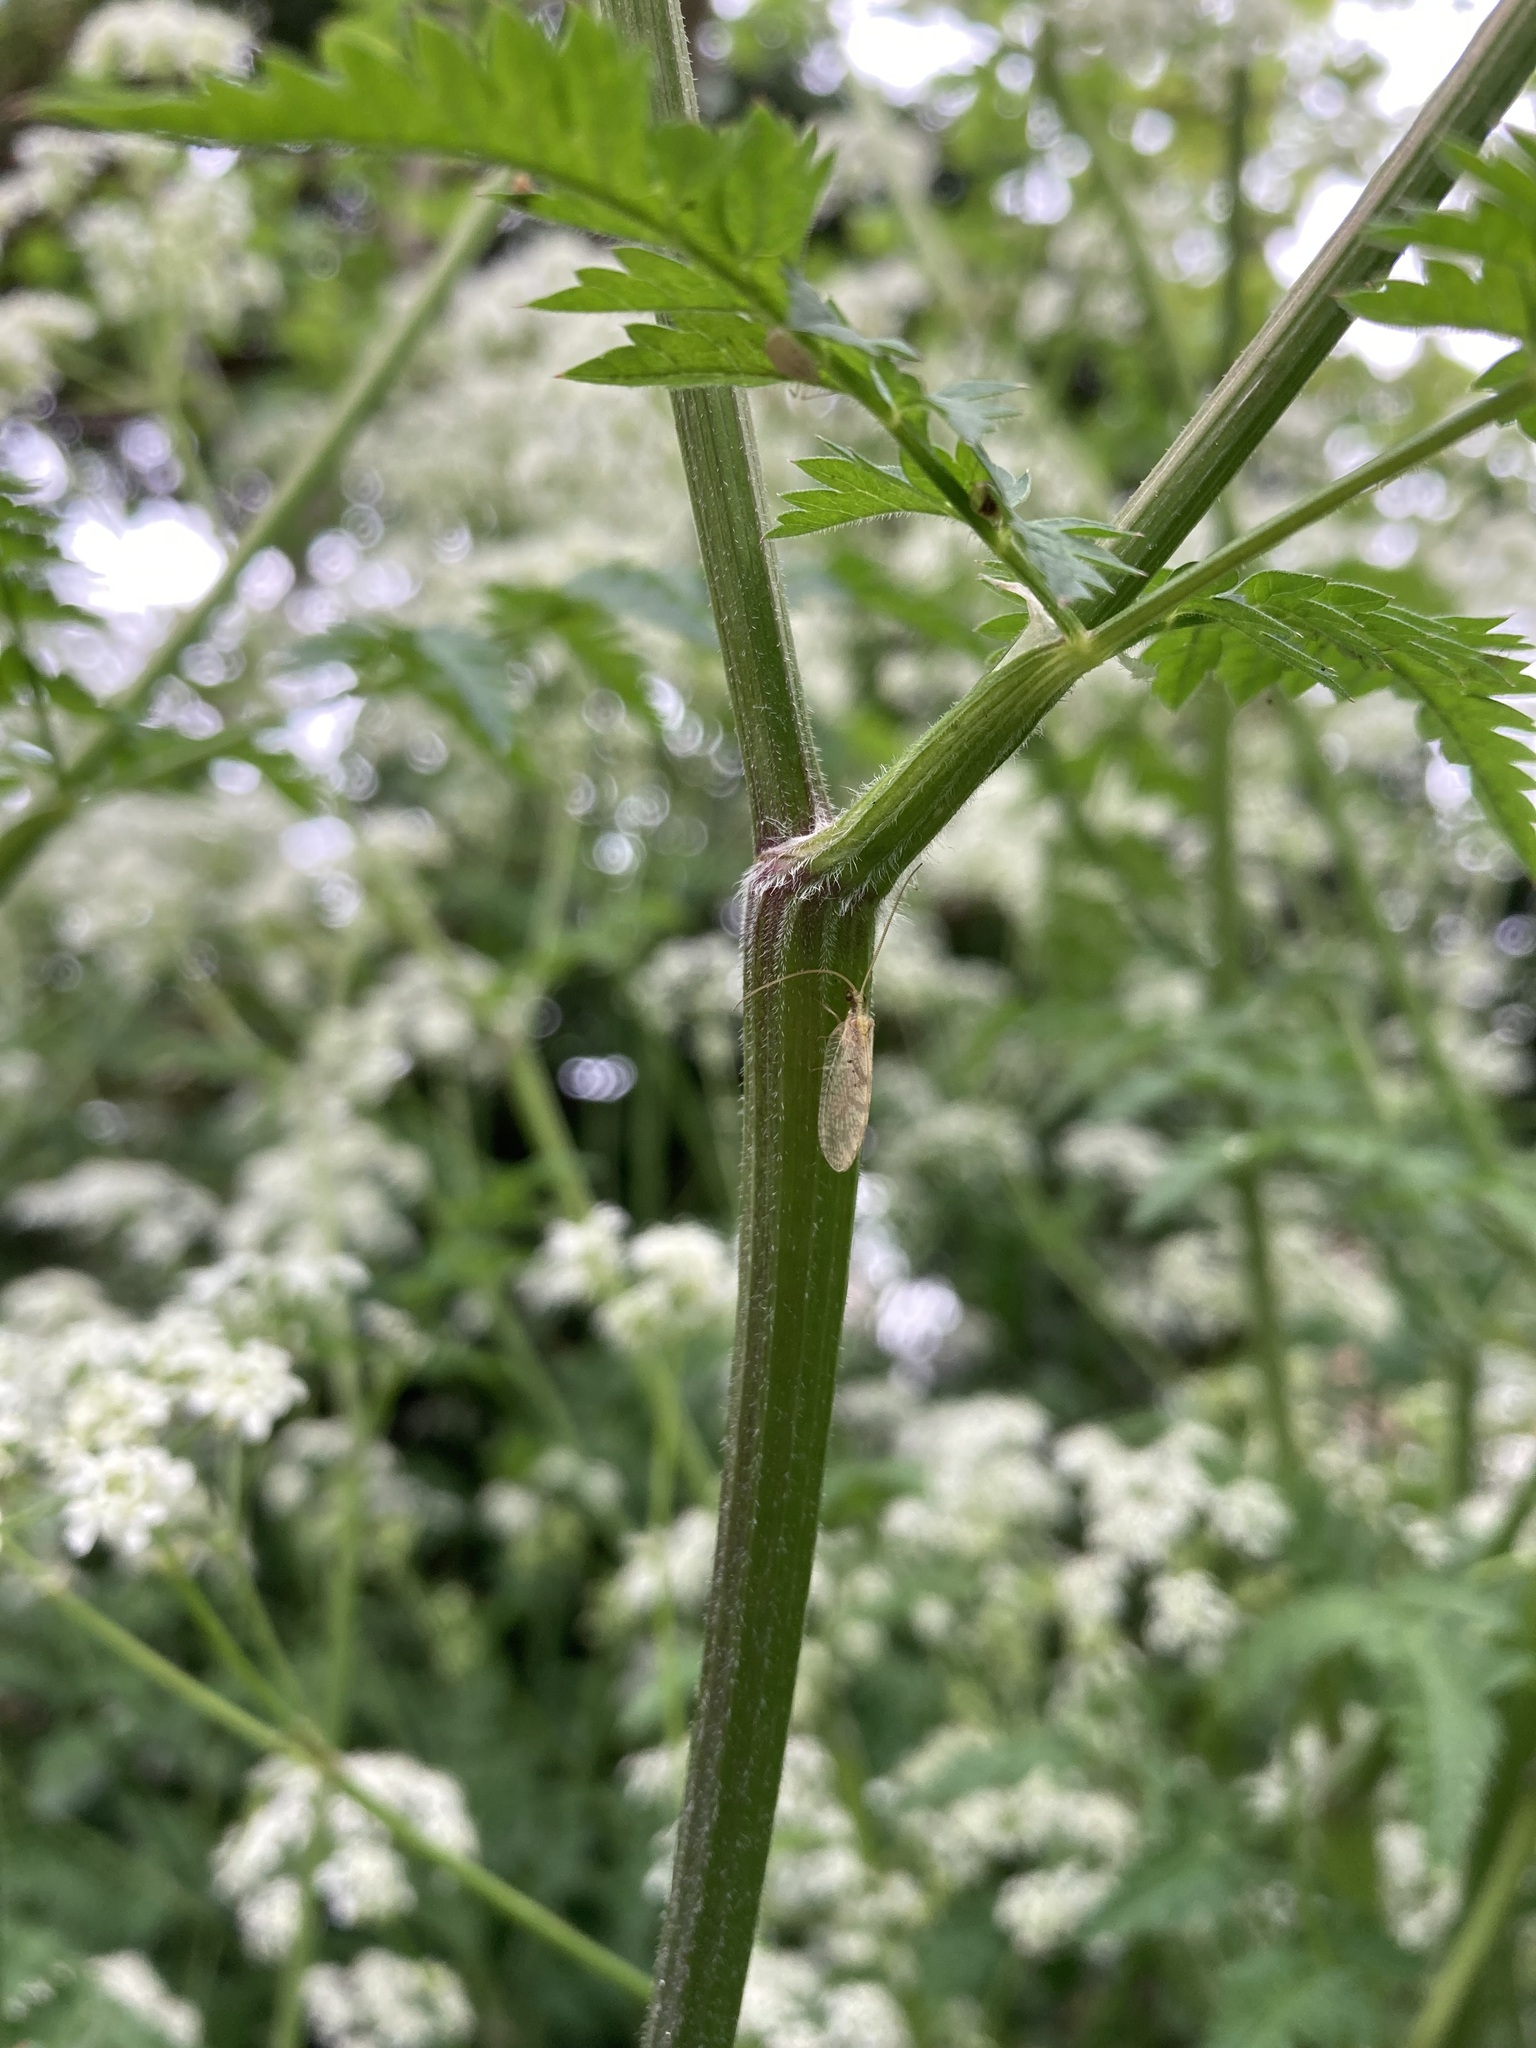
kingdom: Animalia
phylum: Arthropoda
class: Insecta
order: Neuroptera
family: Hemerobiidae
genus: Hemerobius
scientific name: Hemerobius
